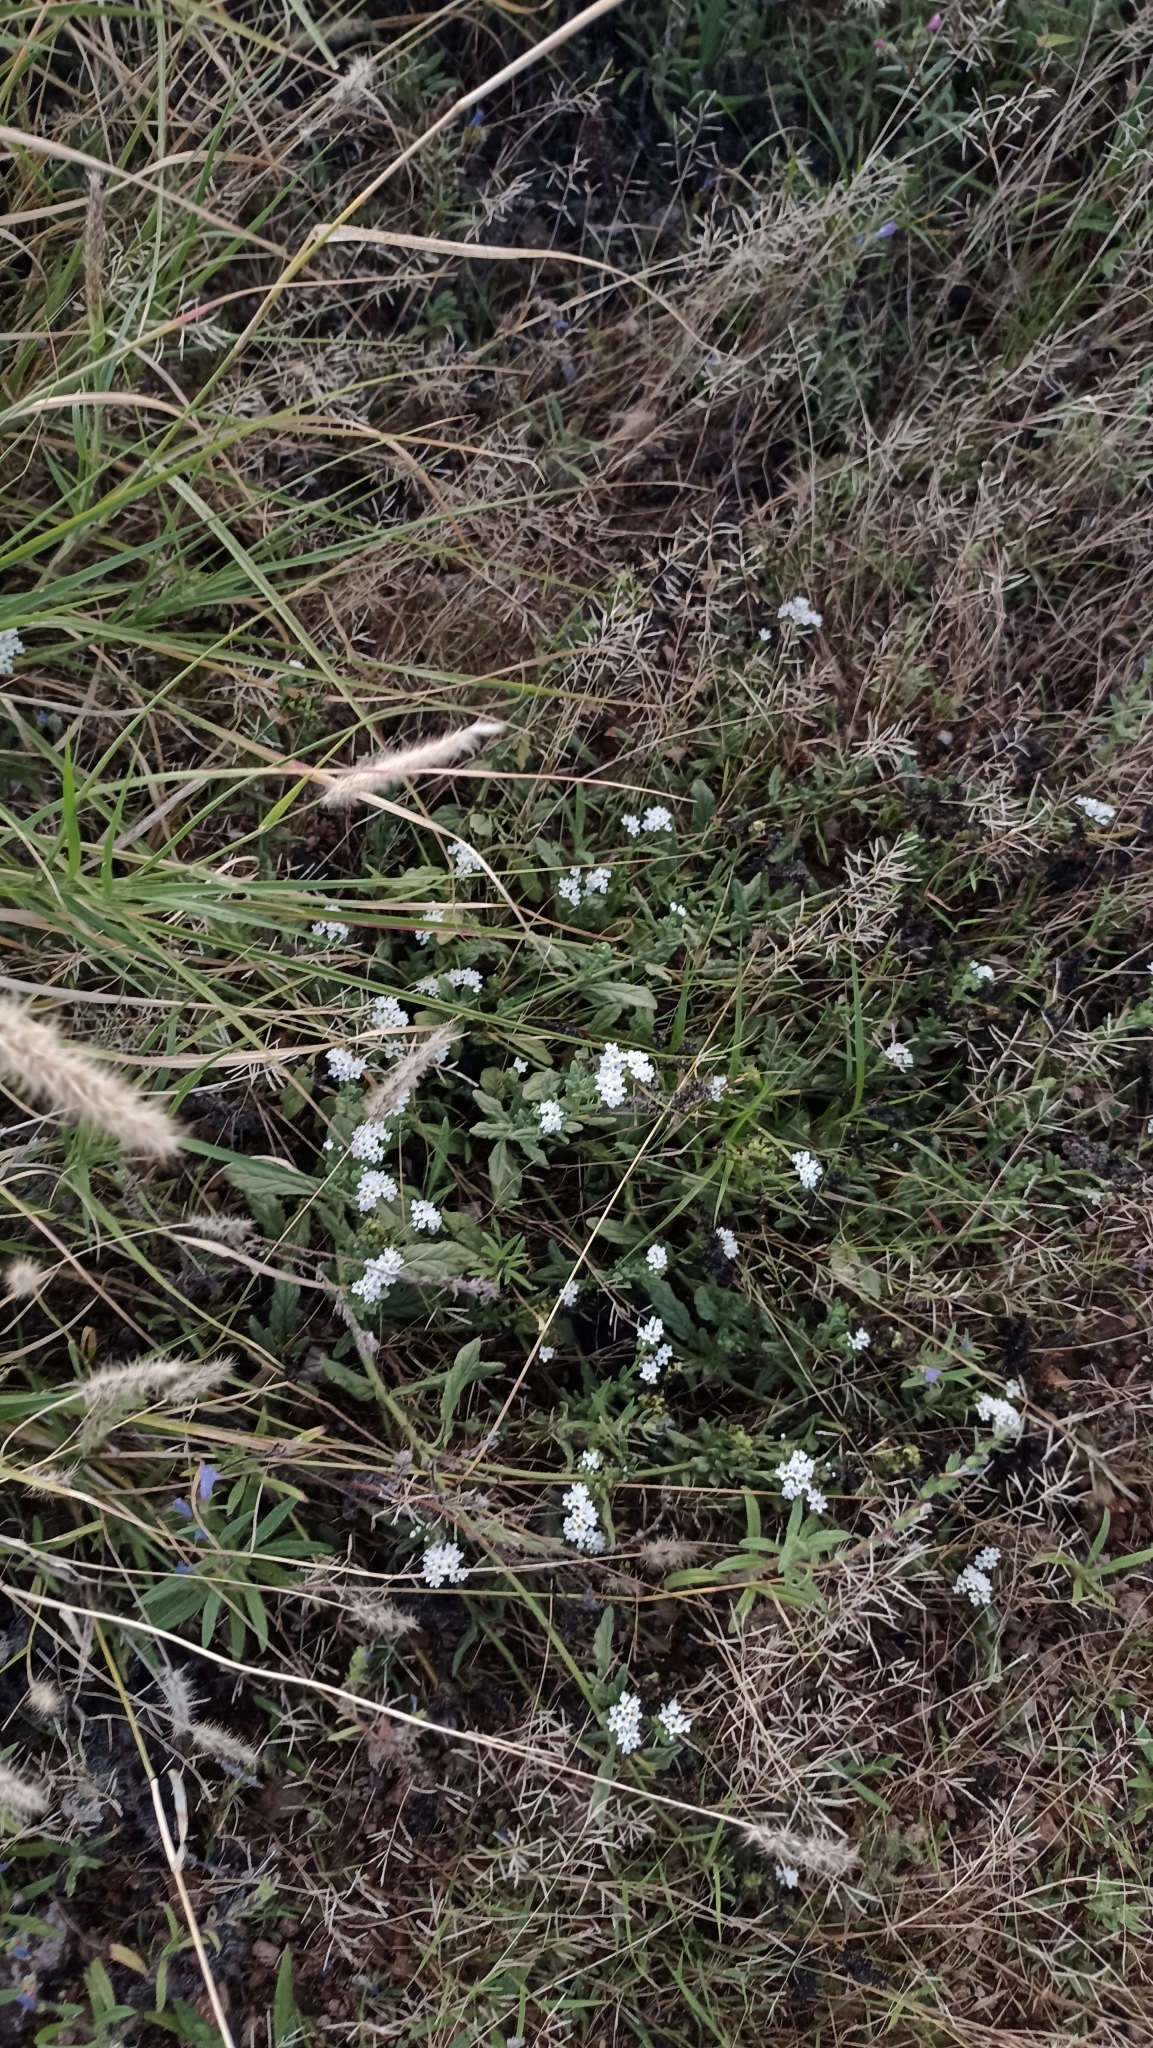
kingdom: Plantae
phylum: Tracheophyta
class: Magnoliopsida
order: Boraginales
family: Heliotropiaceae
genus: Heliotropium
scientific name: Heliotropium ramosissimum
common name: Wavy heliotrope
